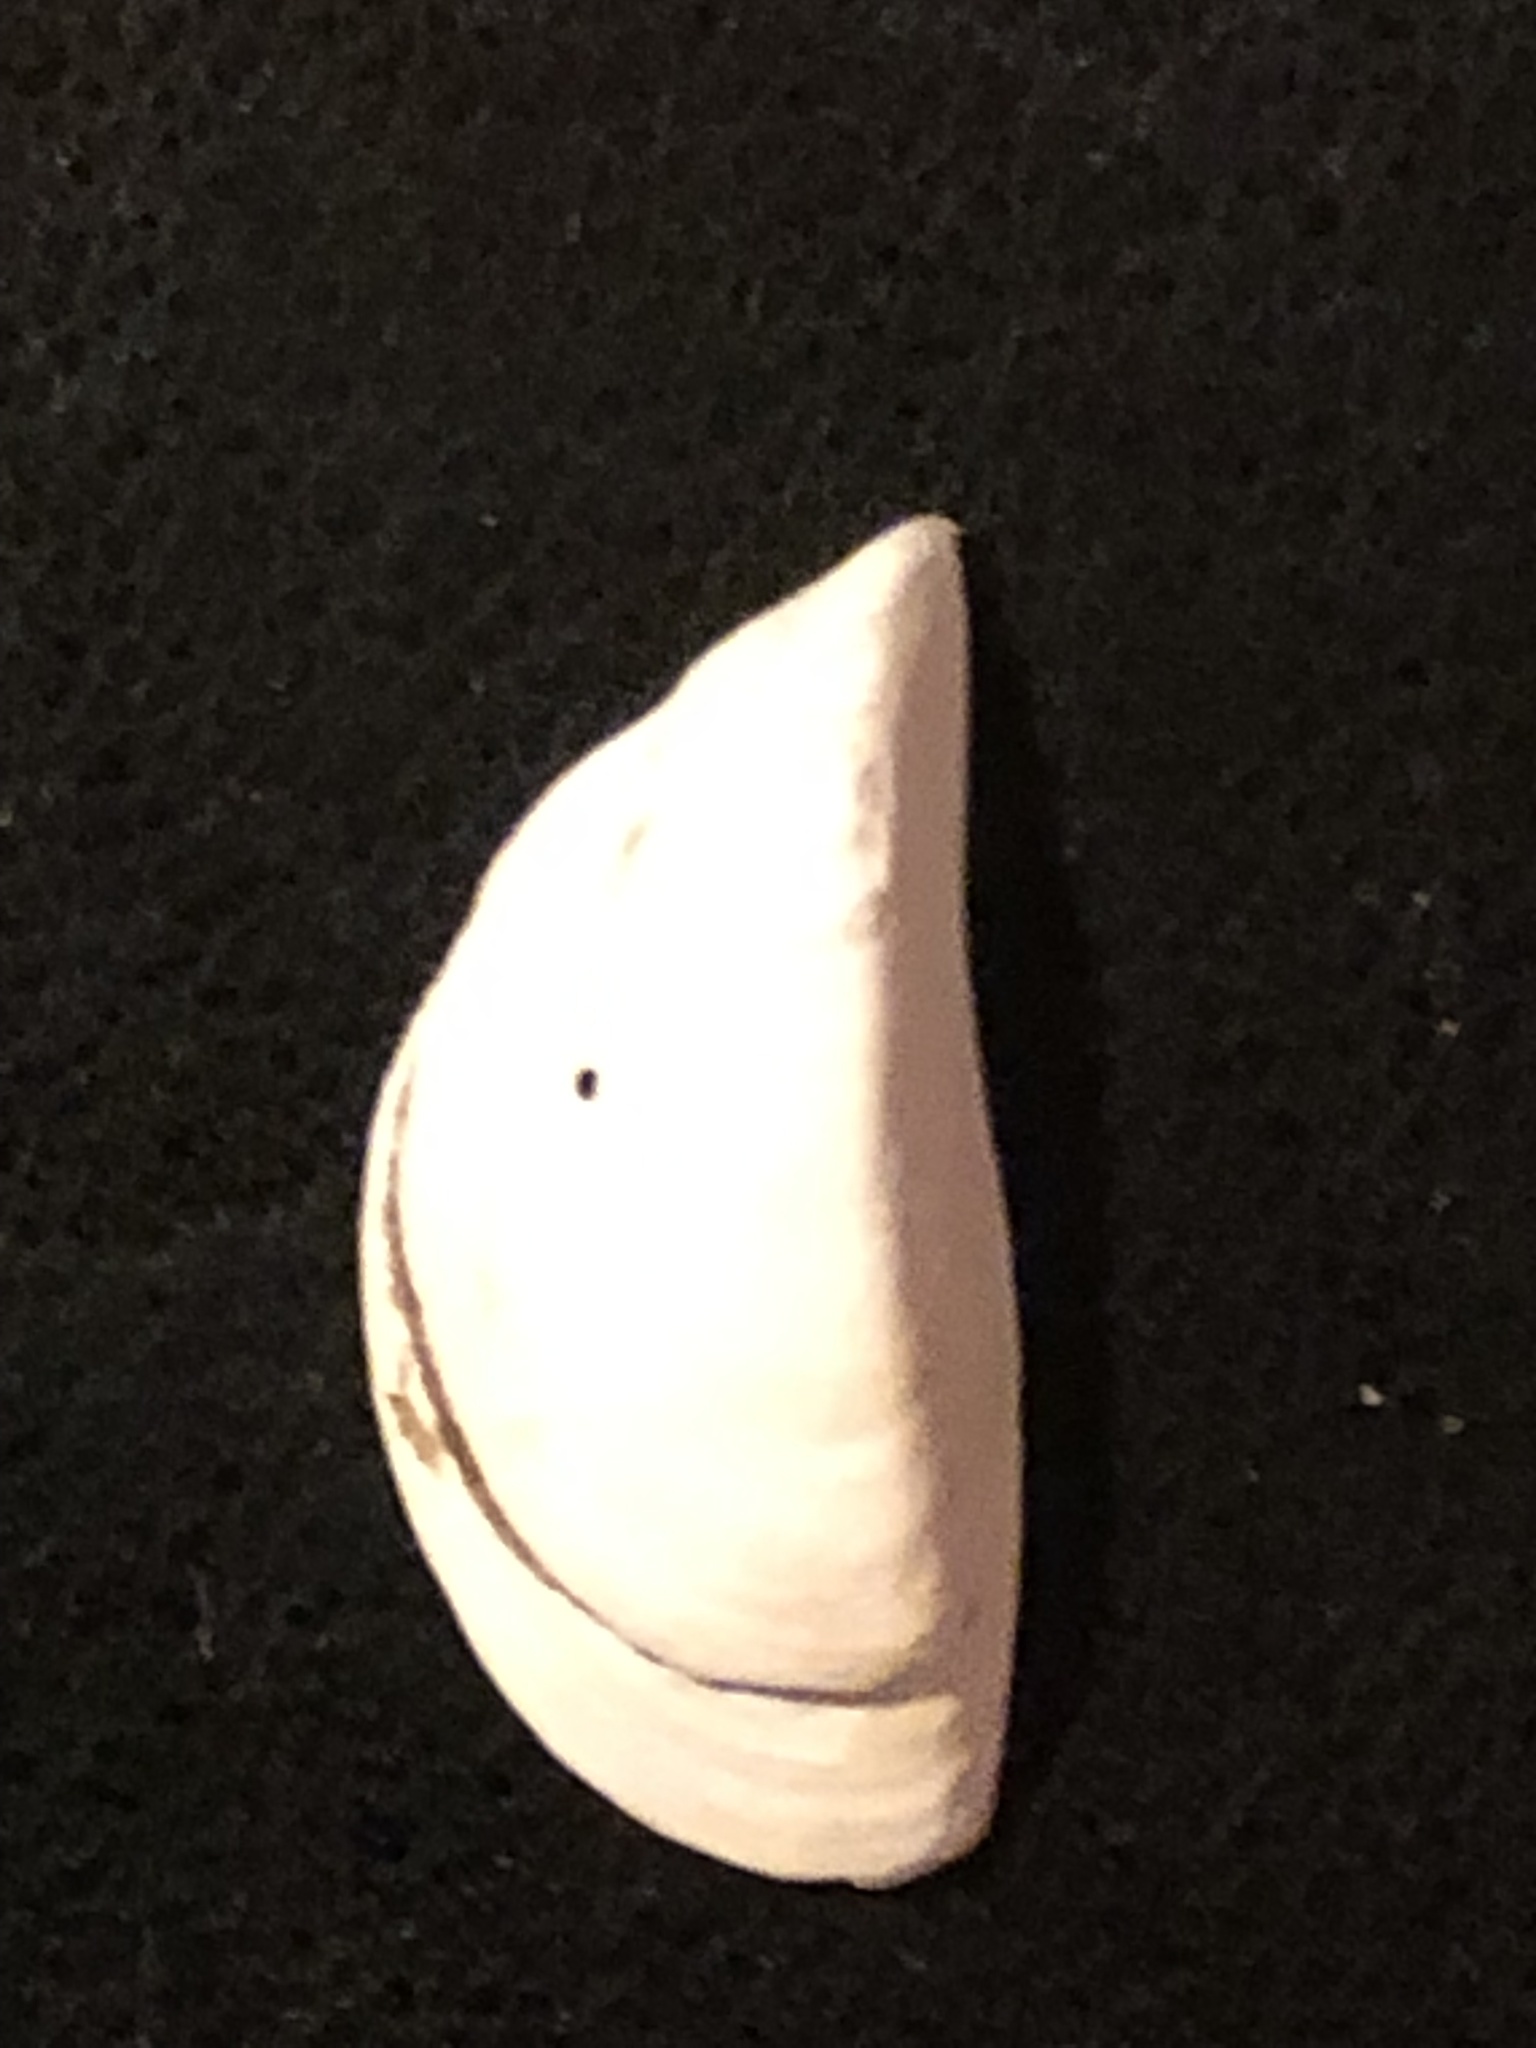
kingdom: Animalia
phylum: Mollusca
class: Bivalvia
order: Myida
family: Dreissenidae
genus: Dreissena
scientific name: Dreissena polymorpha
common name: Zebra mussel
